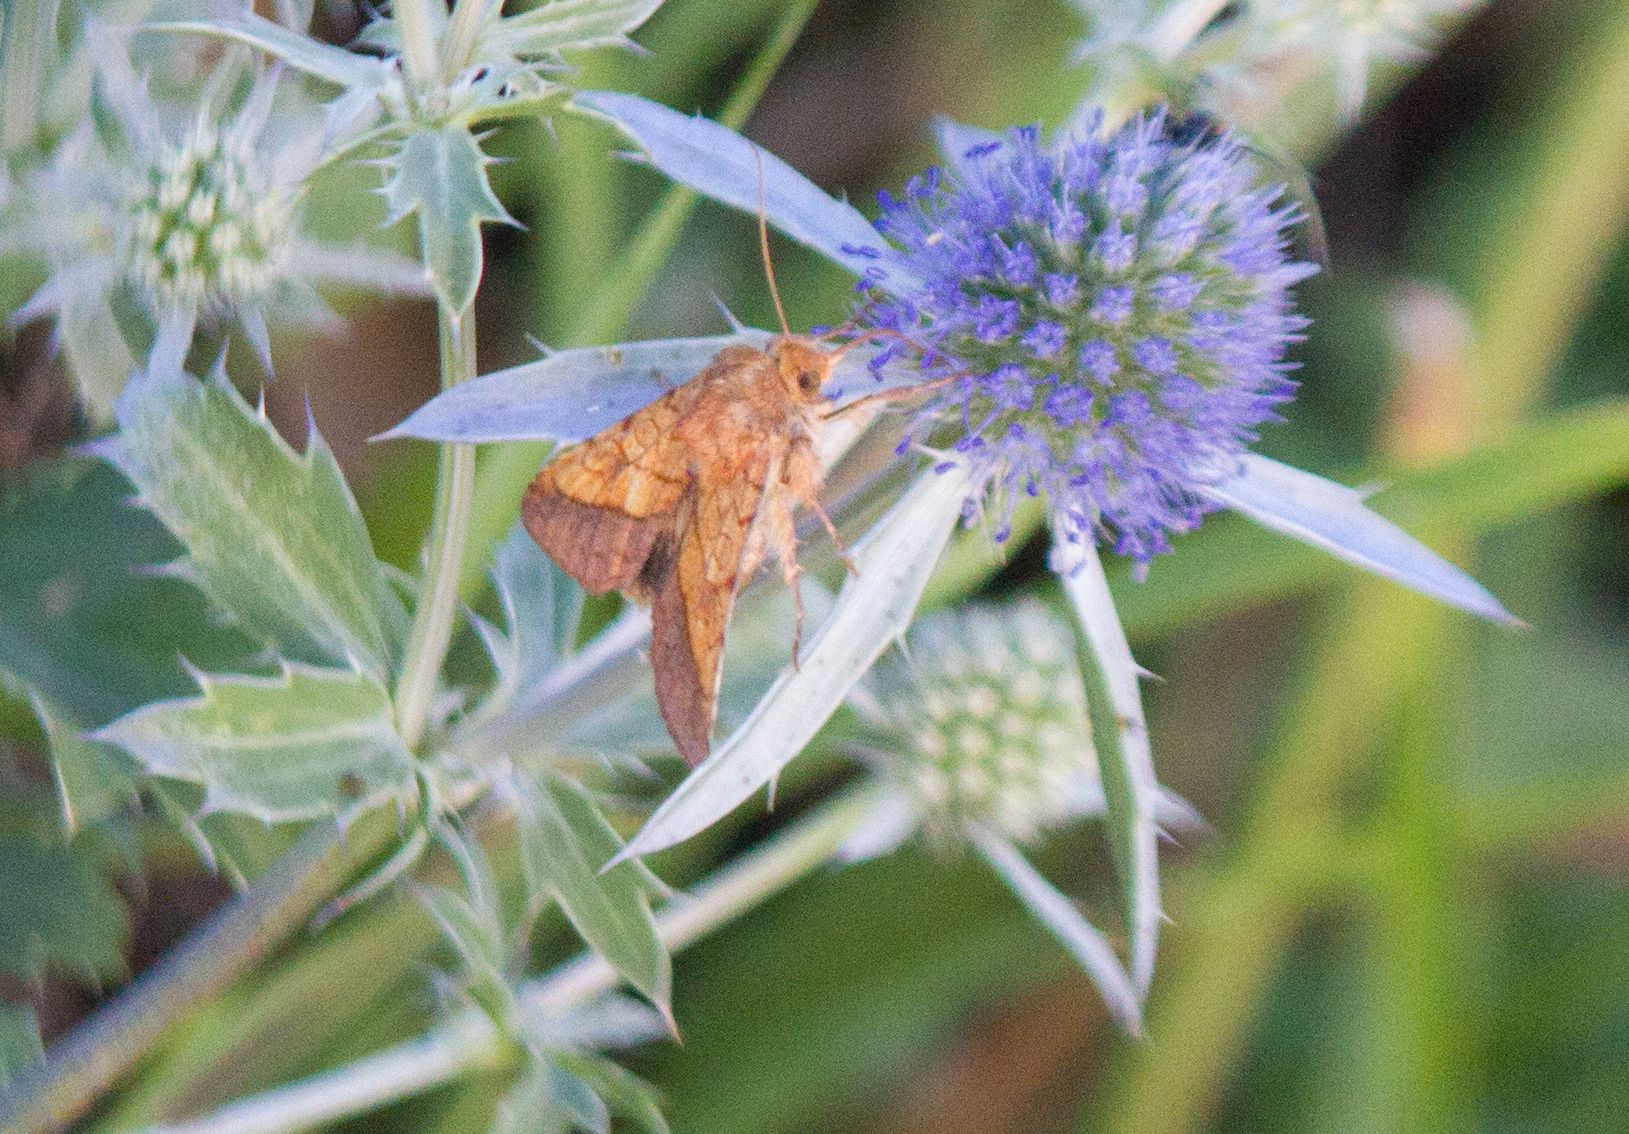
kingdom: Animalia
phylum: Arthropoda
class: Insecta
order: Lepidoptera
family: Noctuidae
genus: Pyrrhia
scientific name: Pyrrhia umbra
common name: Bordered sallow
